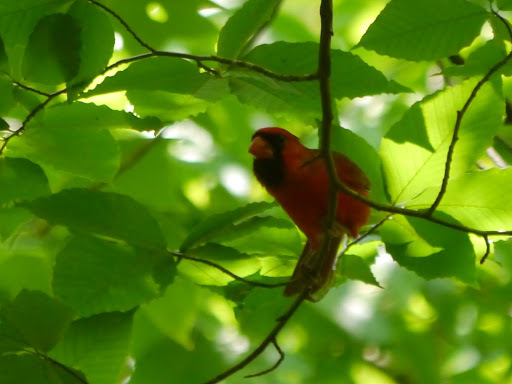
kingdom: Animalia
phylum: Chordata
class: Aves
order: Passeriformes
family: Cardinalidae
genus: Cardinalis
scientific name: Cardinalis cardinalis
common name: Northern cardinal
